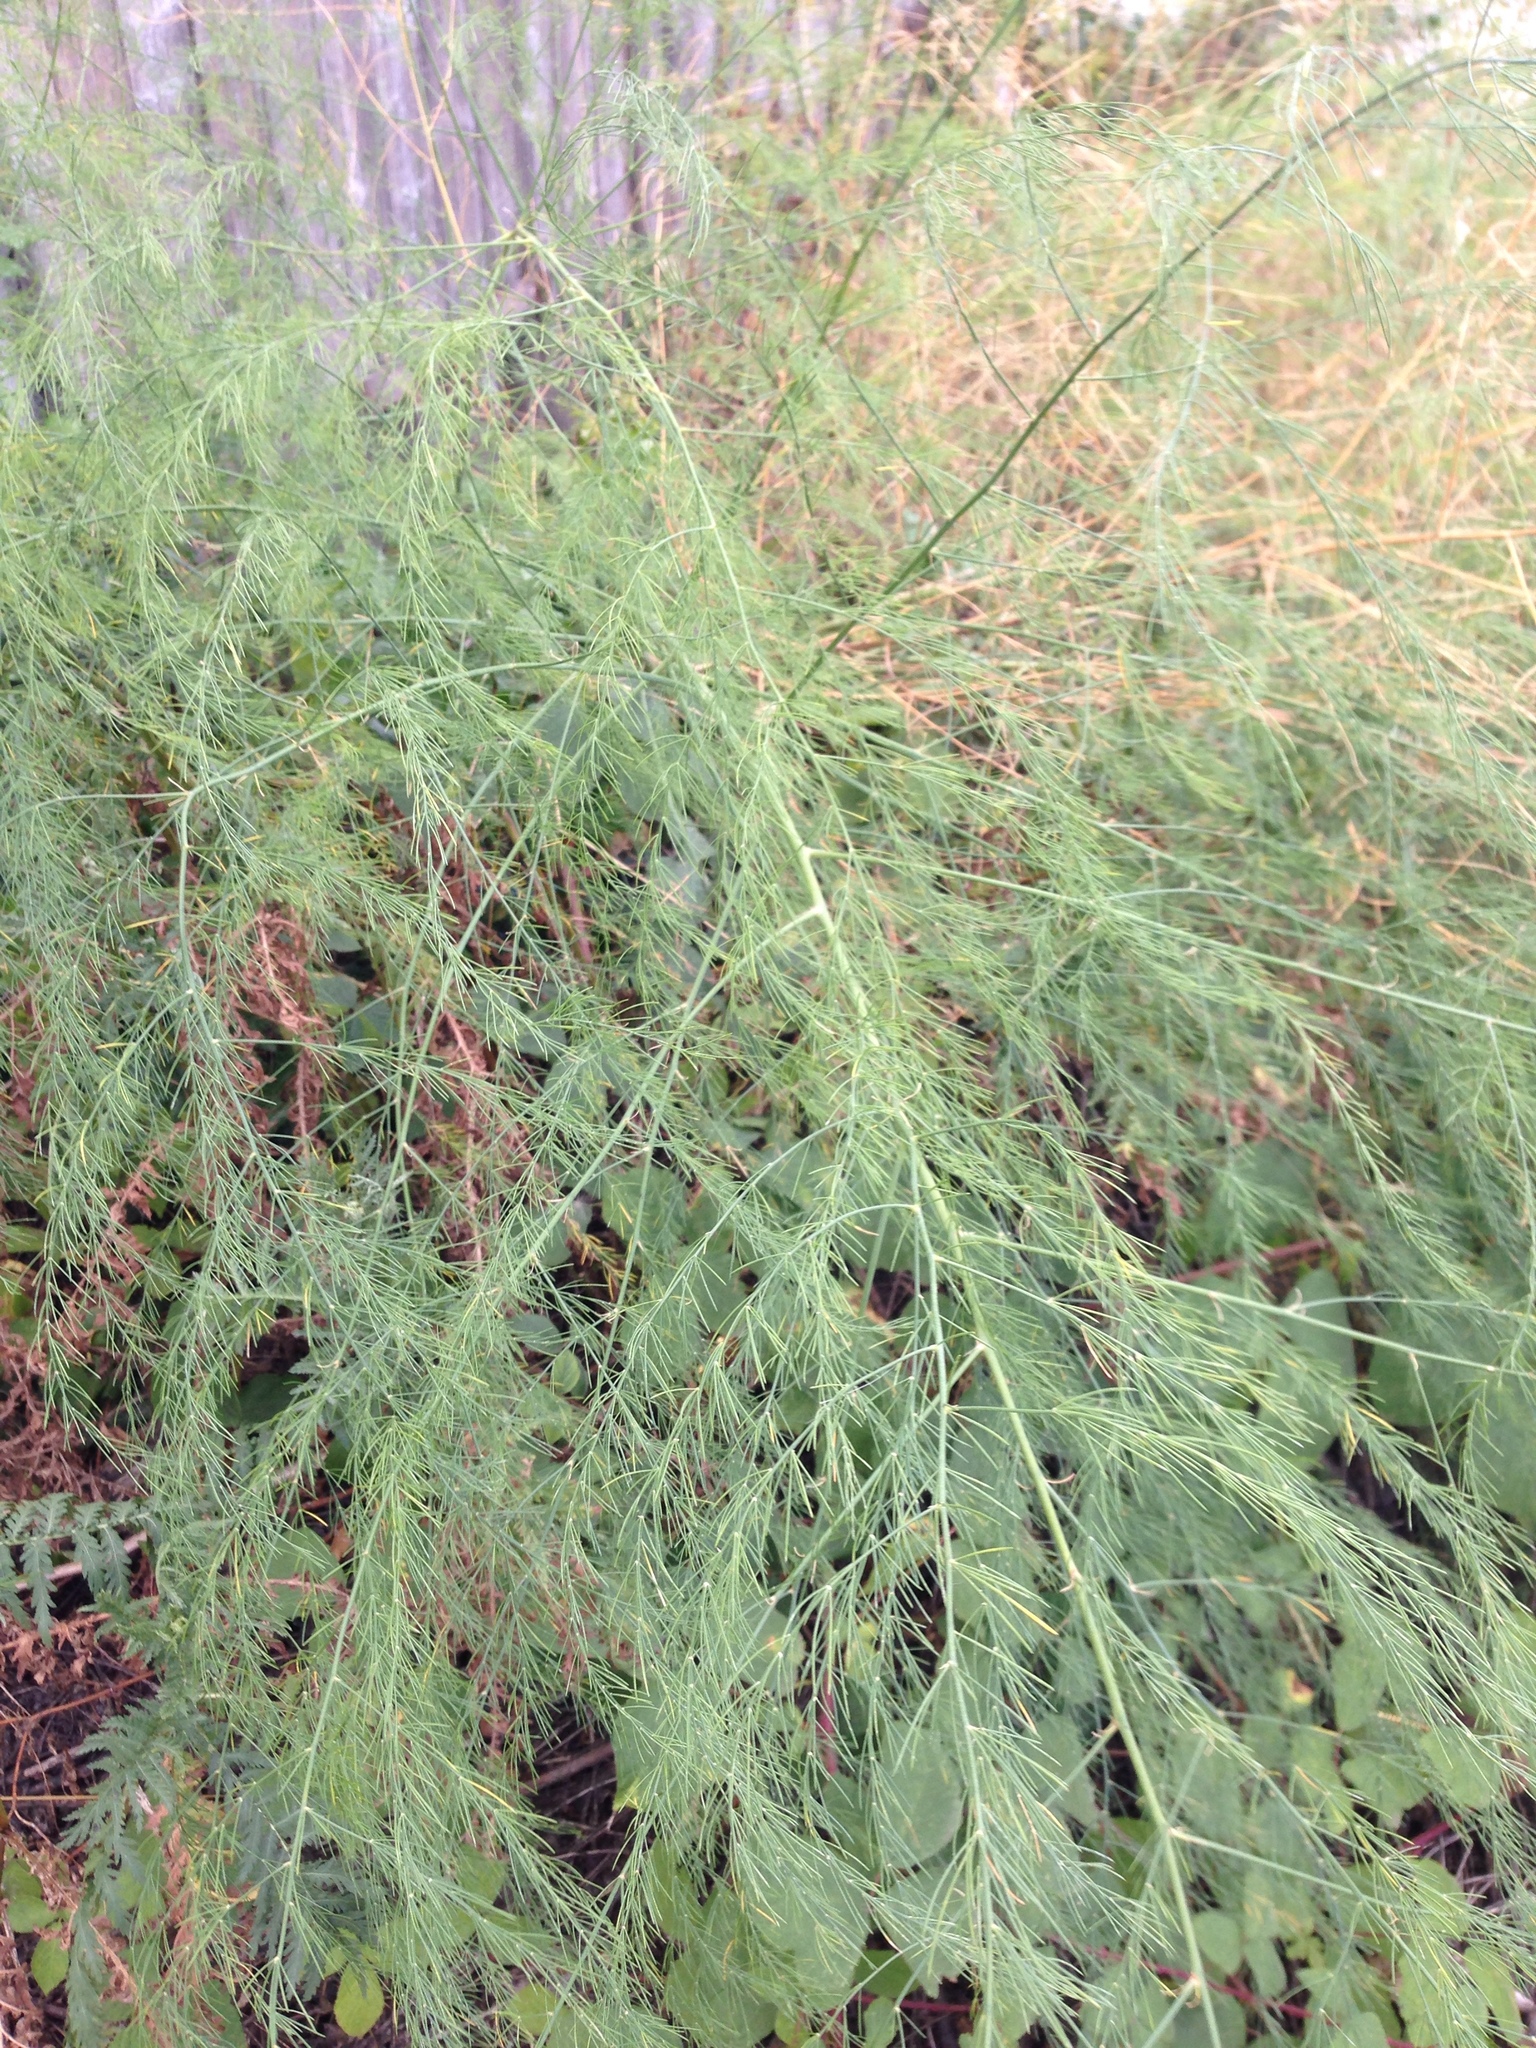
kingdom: Plantae
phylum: Tracheophyta
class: Liliopsida
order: Asparagales
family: Asparagaceae
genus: Asparagus
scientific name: Asparagus officinalis
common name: Garden asparagus
